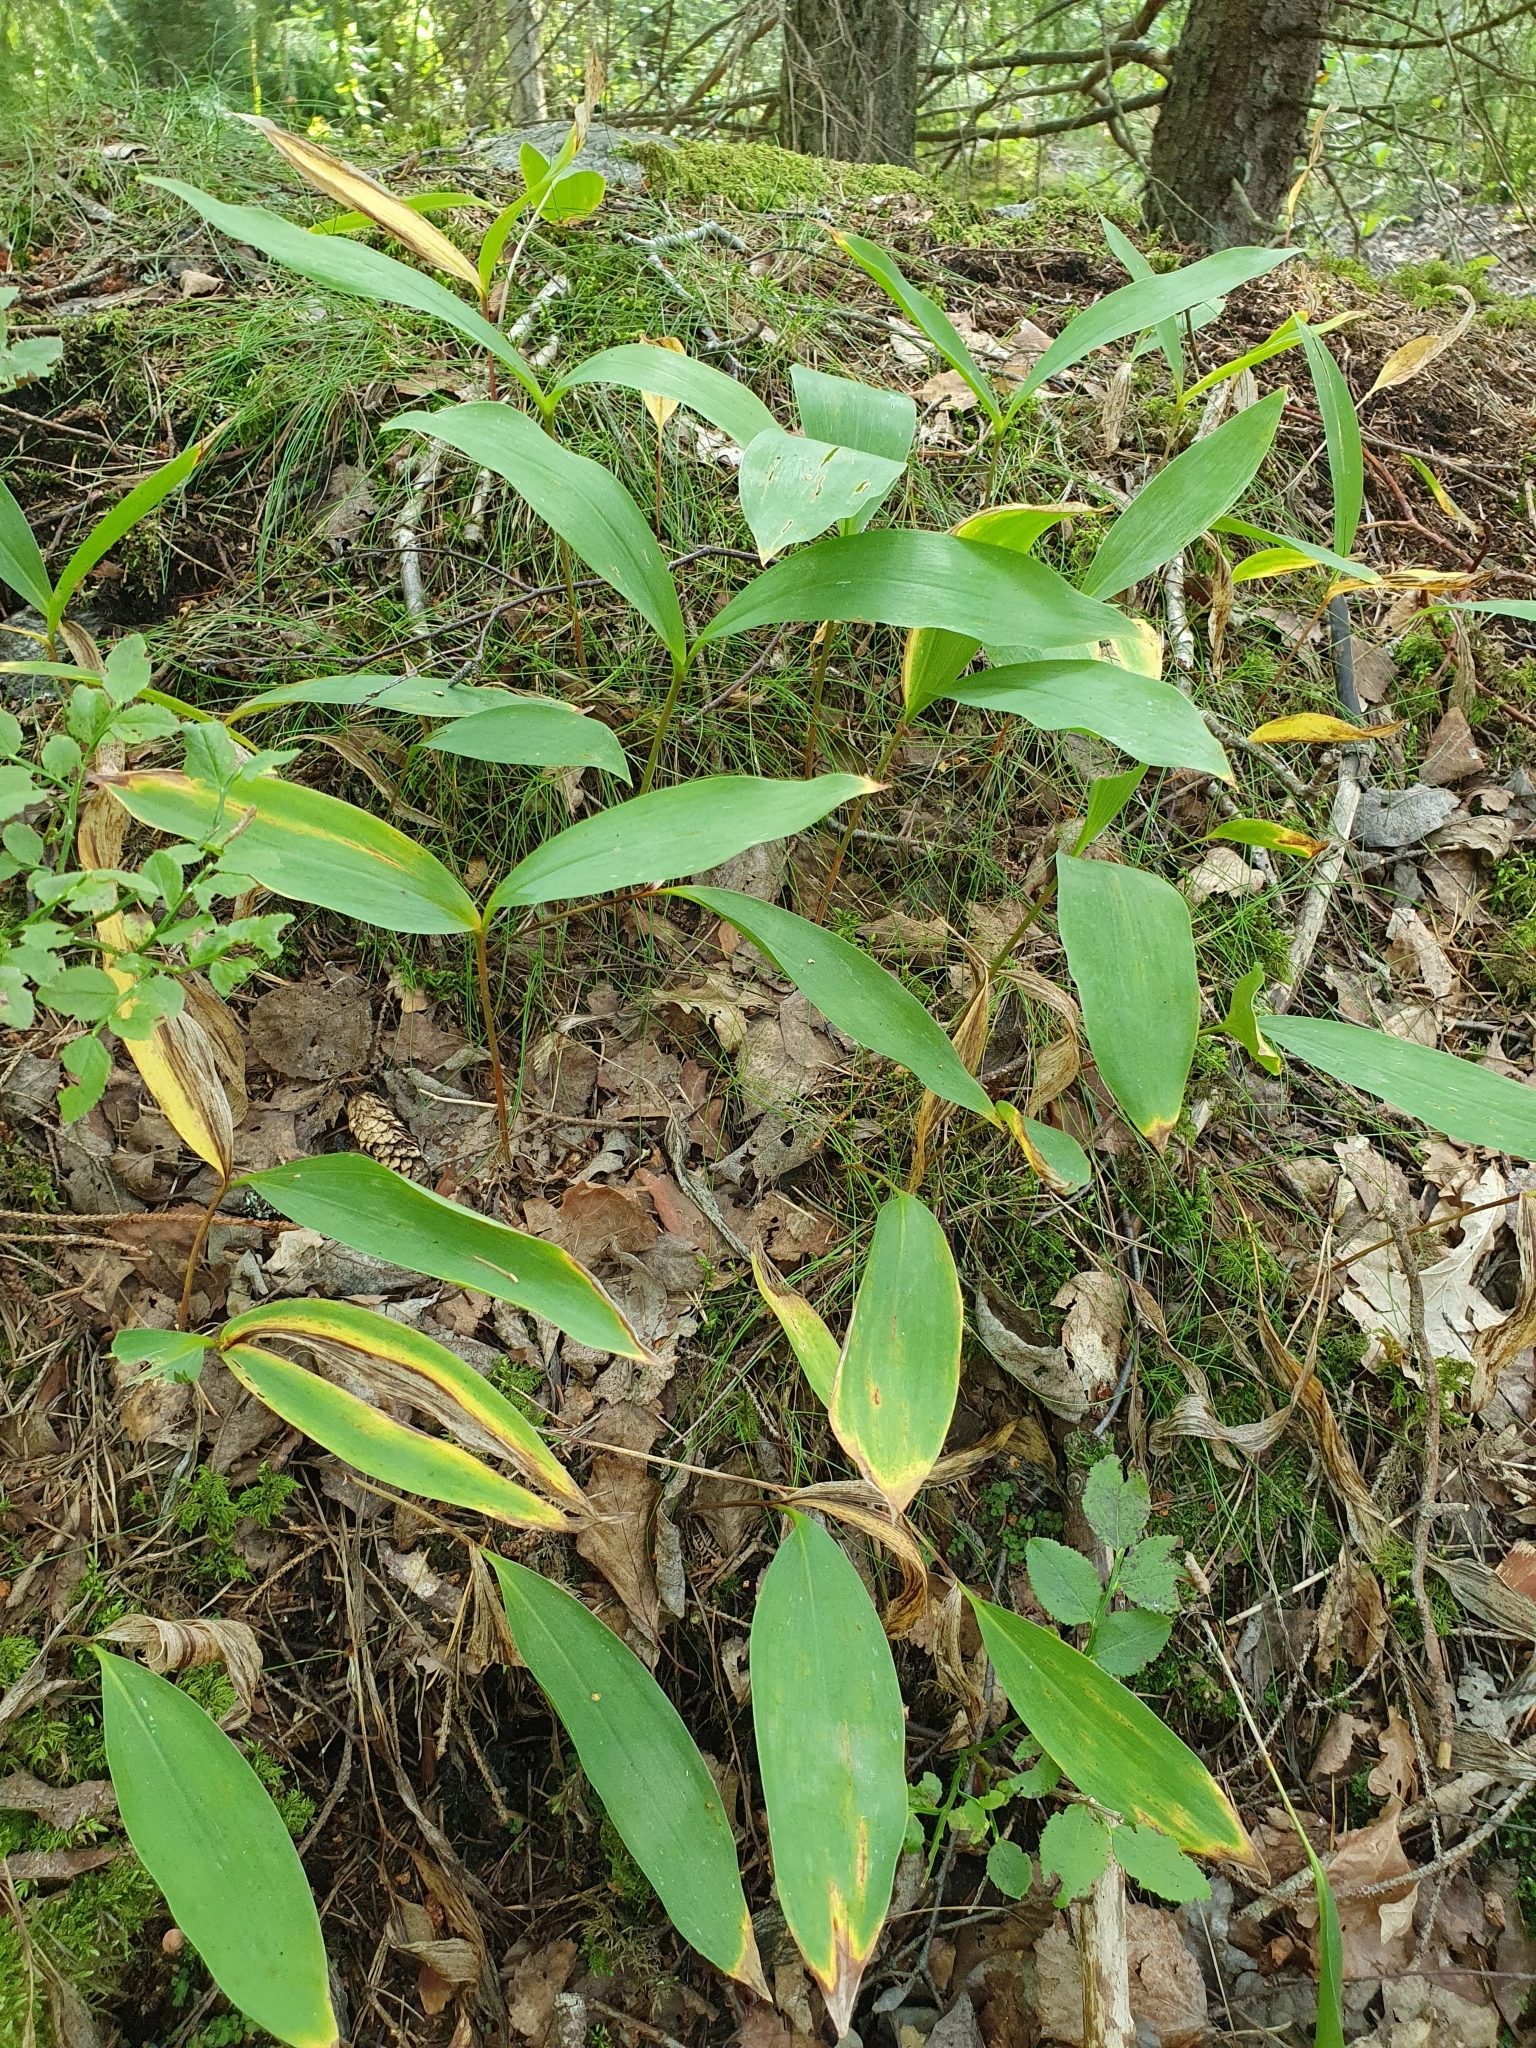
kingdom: Plantae
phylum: Tracheophyta
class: Liliopsida
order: Asparagales
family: Asparagaceae
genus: Convallaria
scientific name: Convallaria majalis
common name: Lily-of-the-valley
